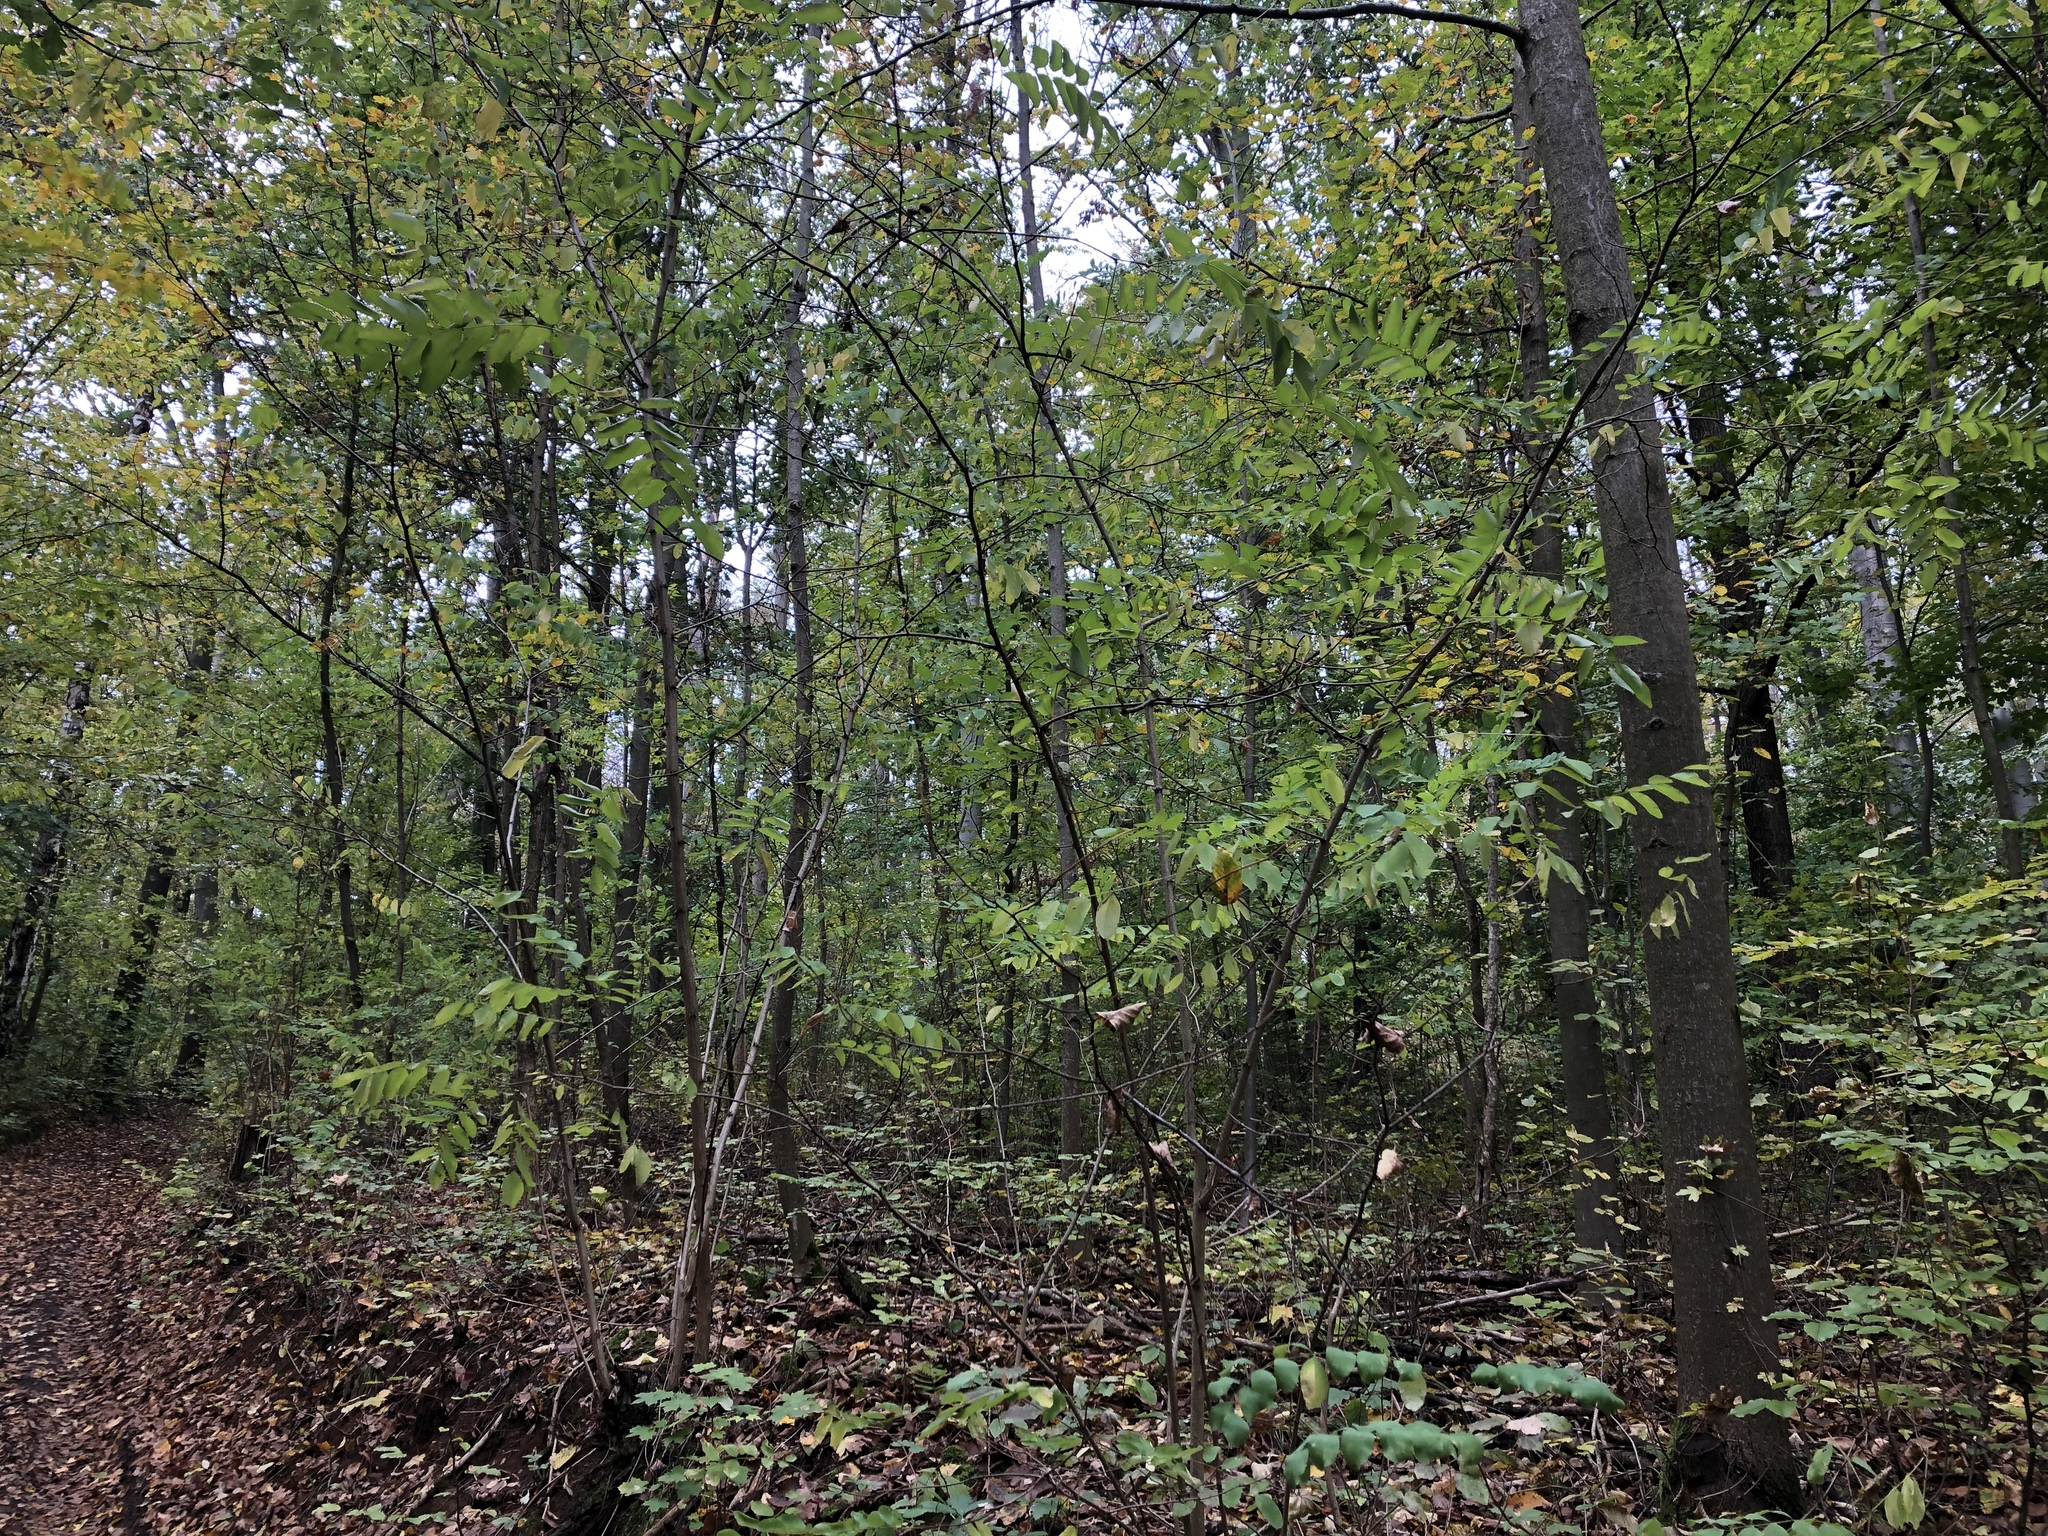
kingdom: Plantae
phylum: Tracheophyta
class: Magnoliopsida
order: Fabales
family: Fabaceae
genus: Robinia
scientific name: Robinia pseudoacacia
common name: Black locust
